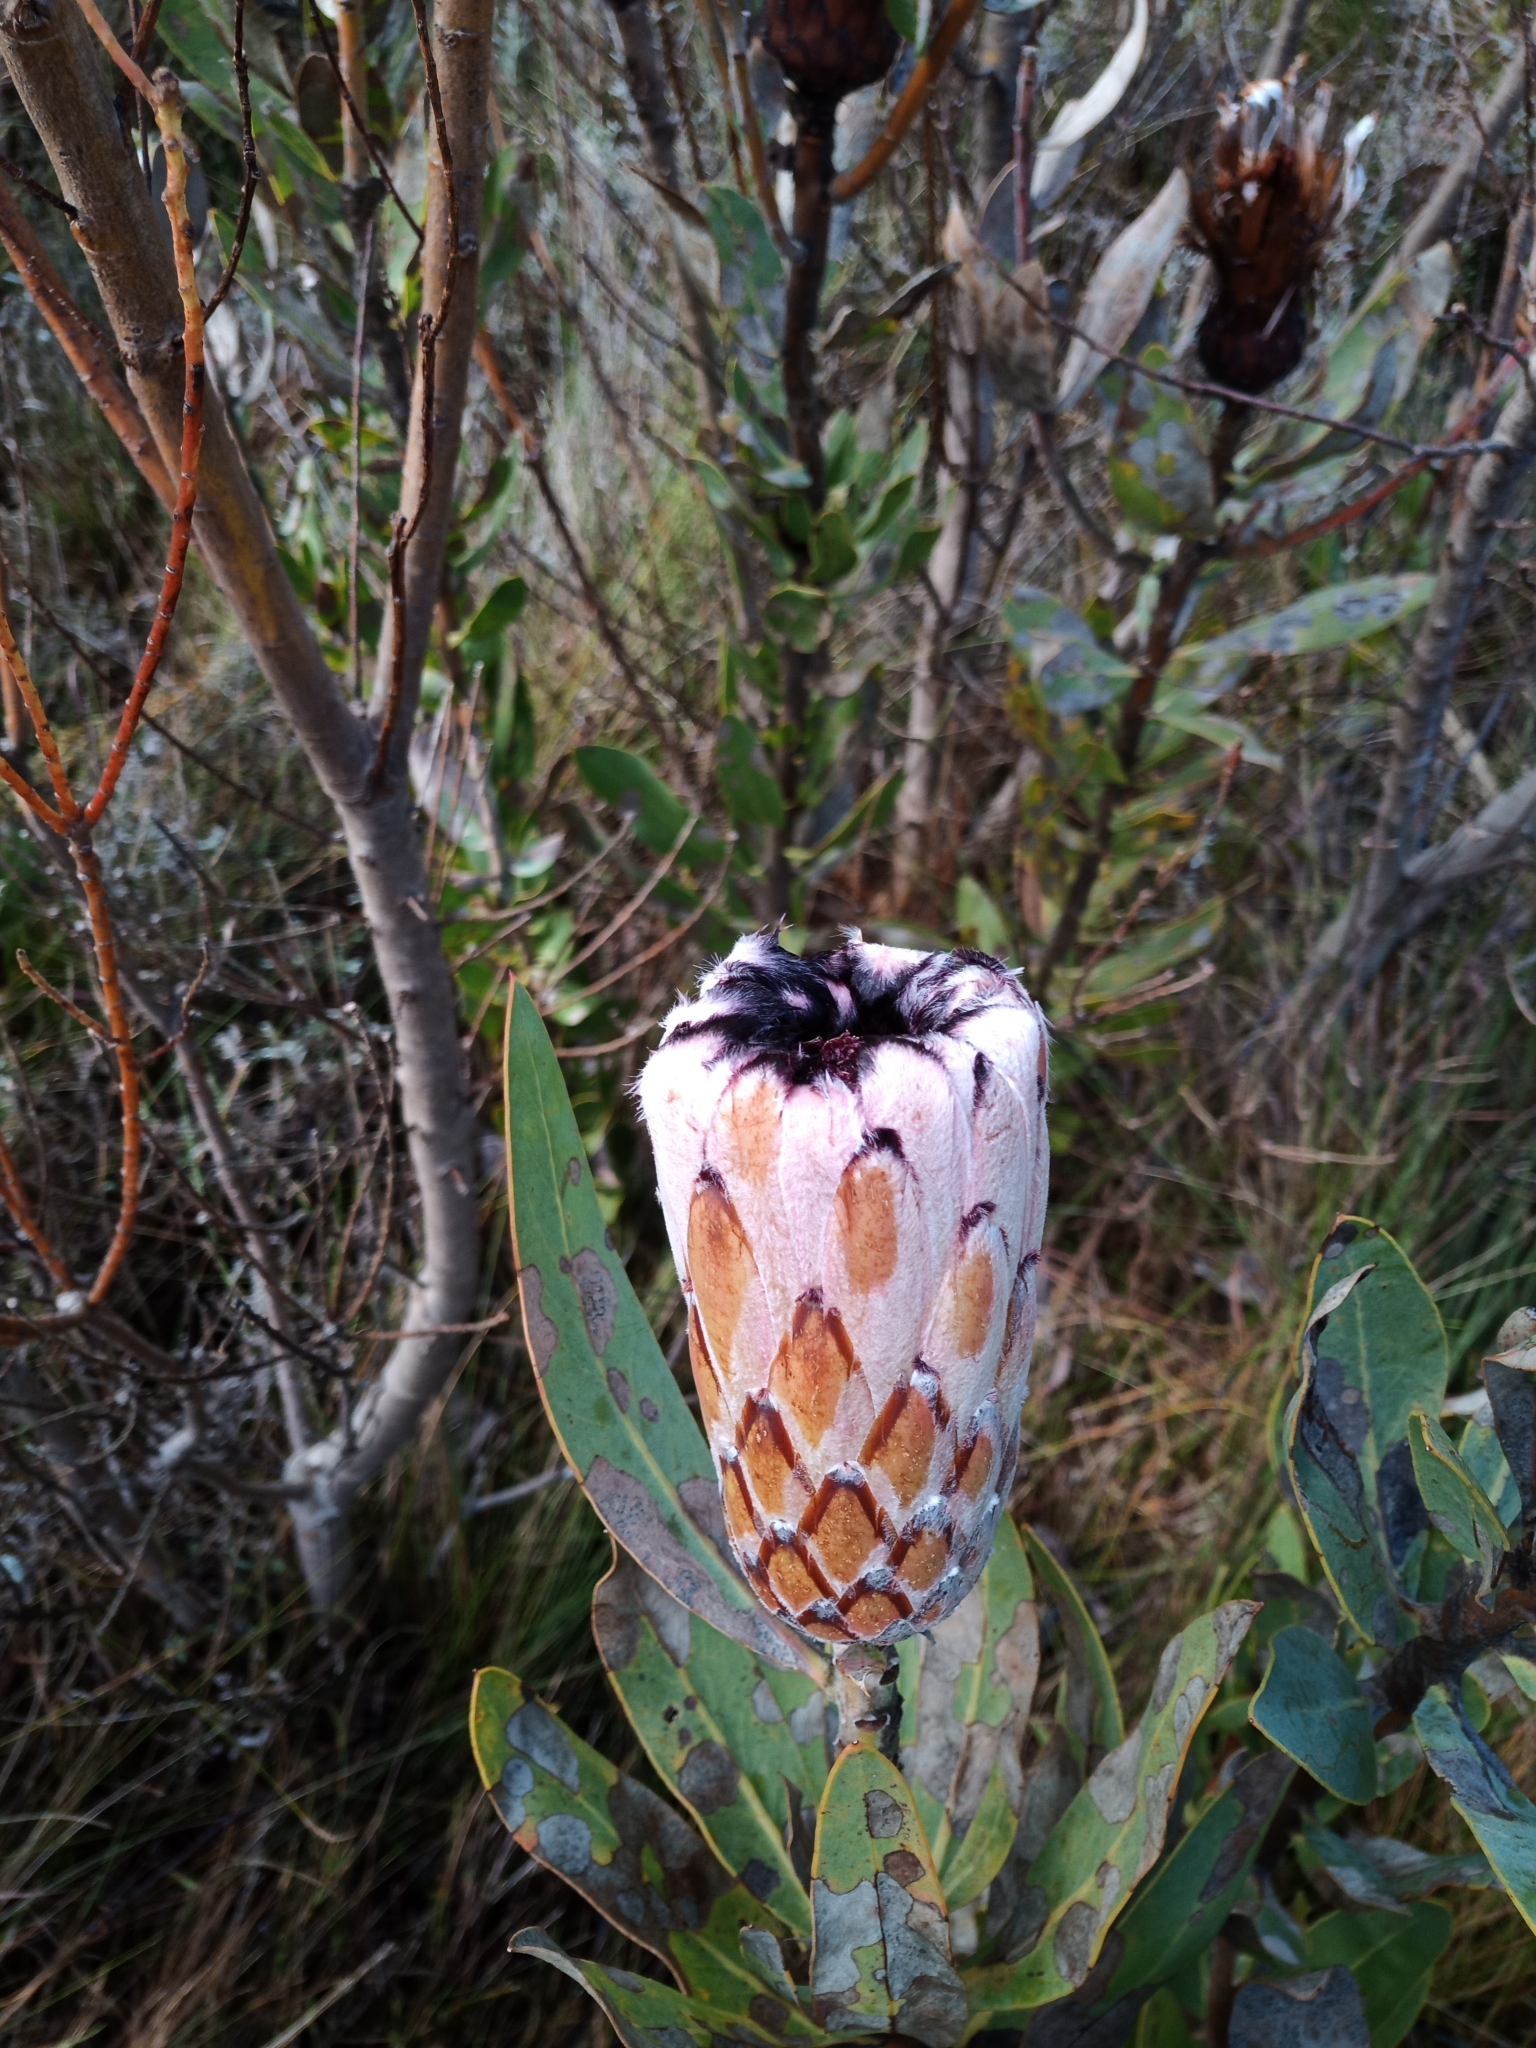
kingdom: Plantae
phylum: Tracheophyta
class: Magnoliopsida
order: Proteales
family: Proteaceae
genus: Protea
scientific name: Protea laurifolia
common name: Grey-leaf sugarbsh
